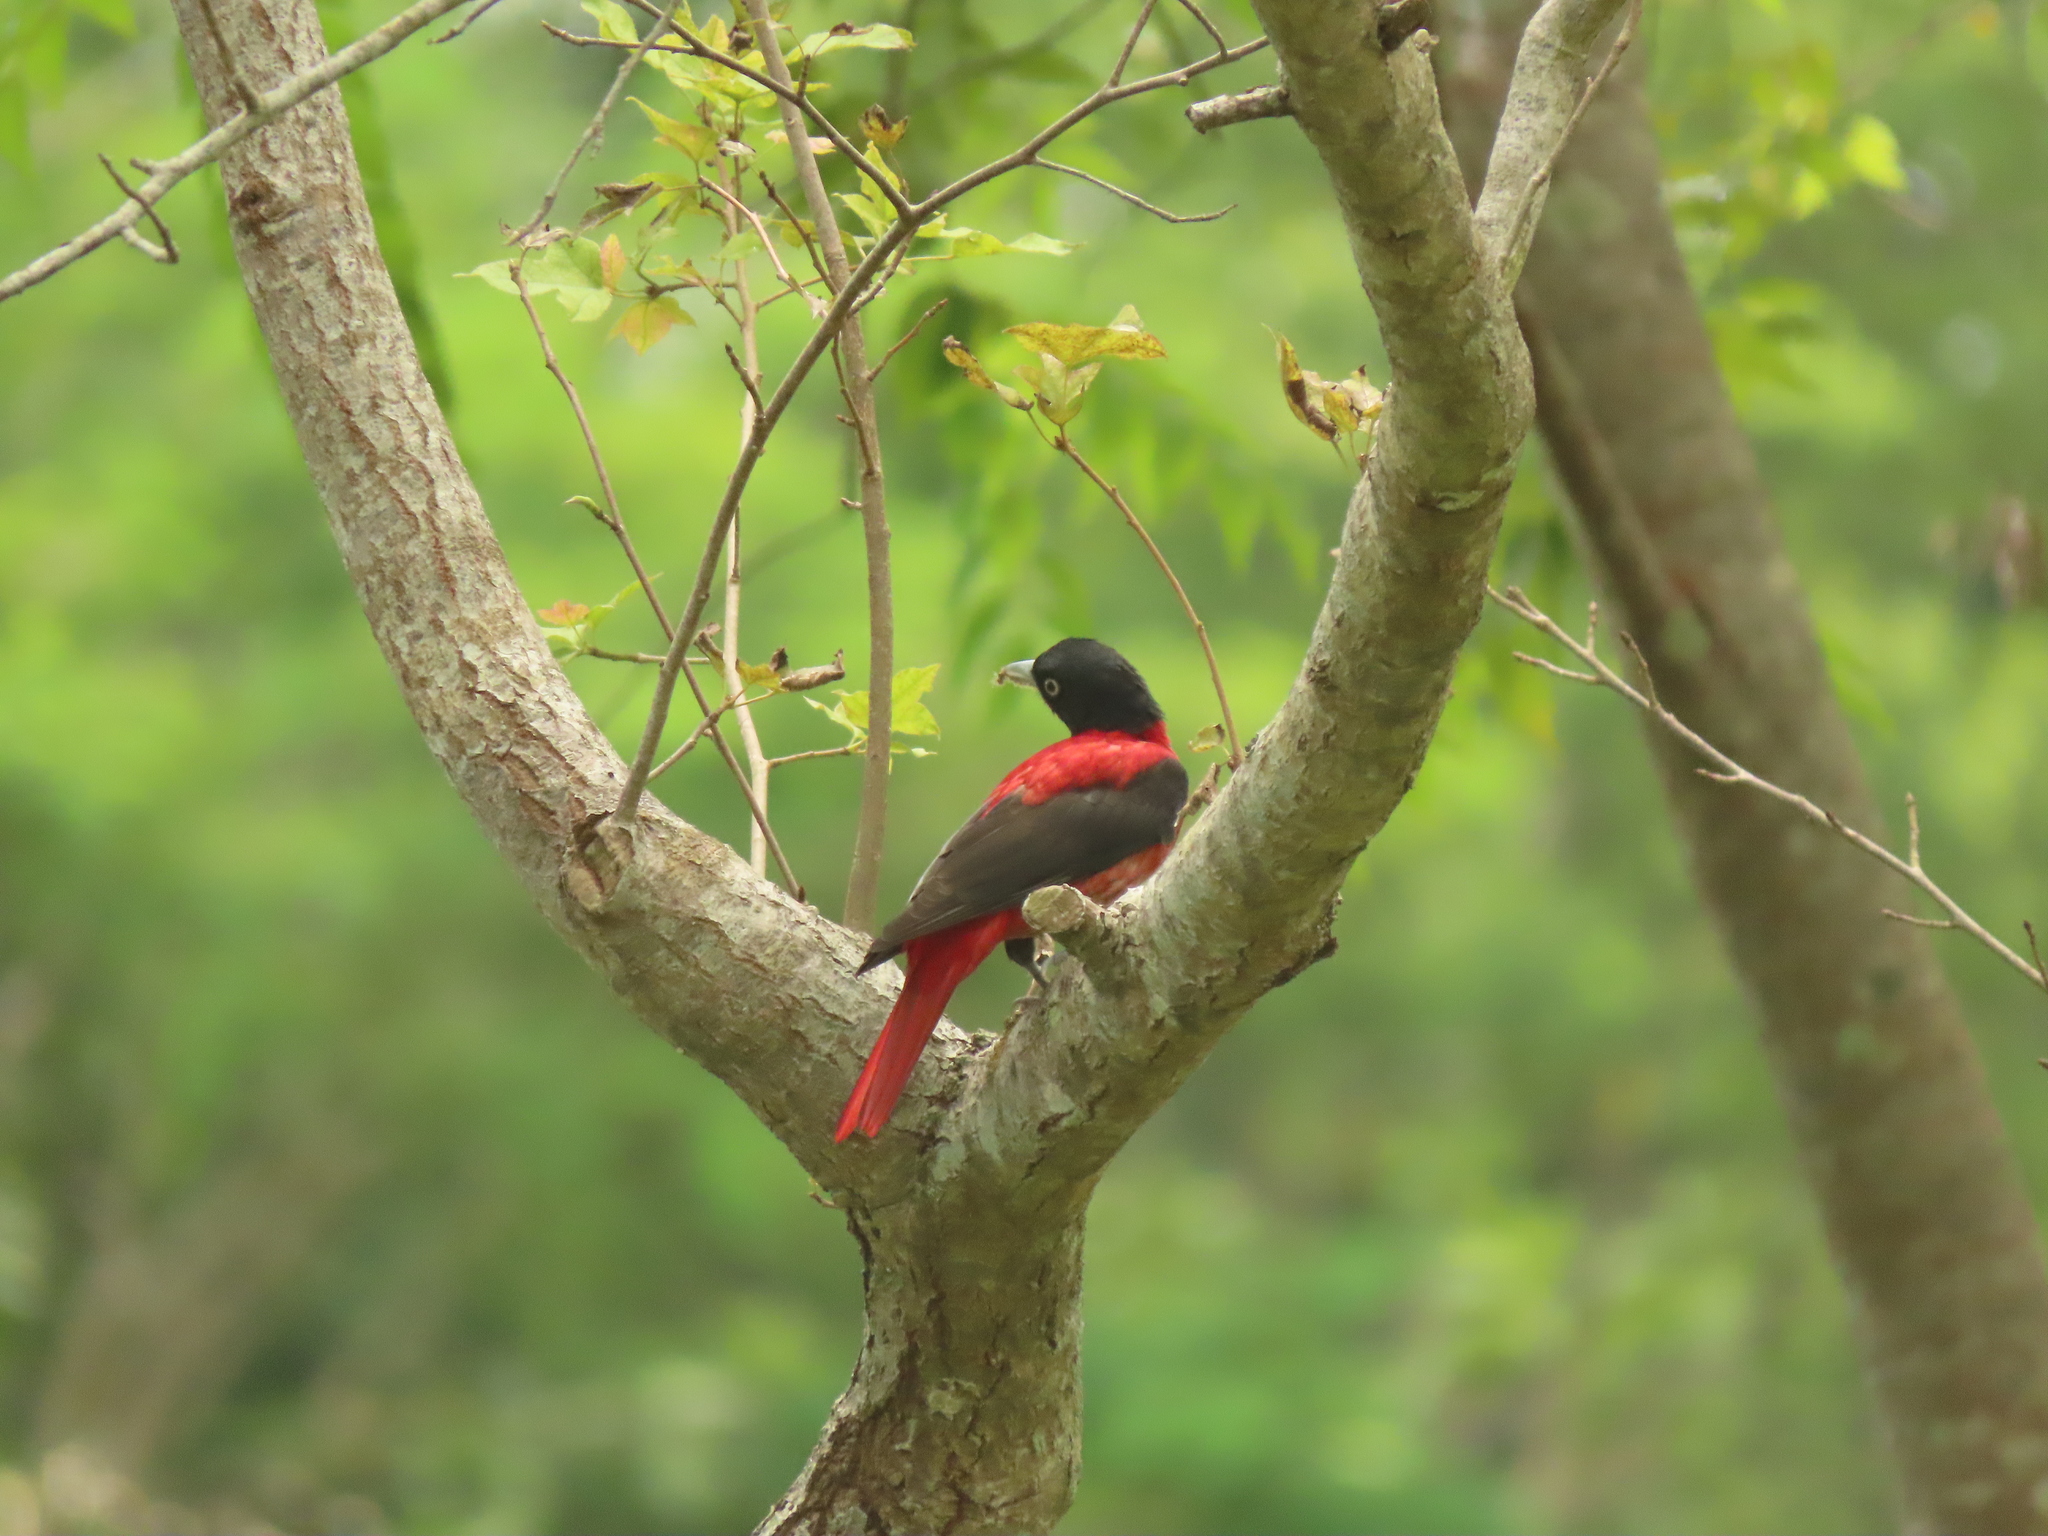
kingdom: Animalia
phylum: Chordata
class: Aves
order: Passeriformes
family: Oriolidae
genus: Oriolus
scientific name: Oriolus traillii
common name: Maroon oriole
